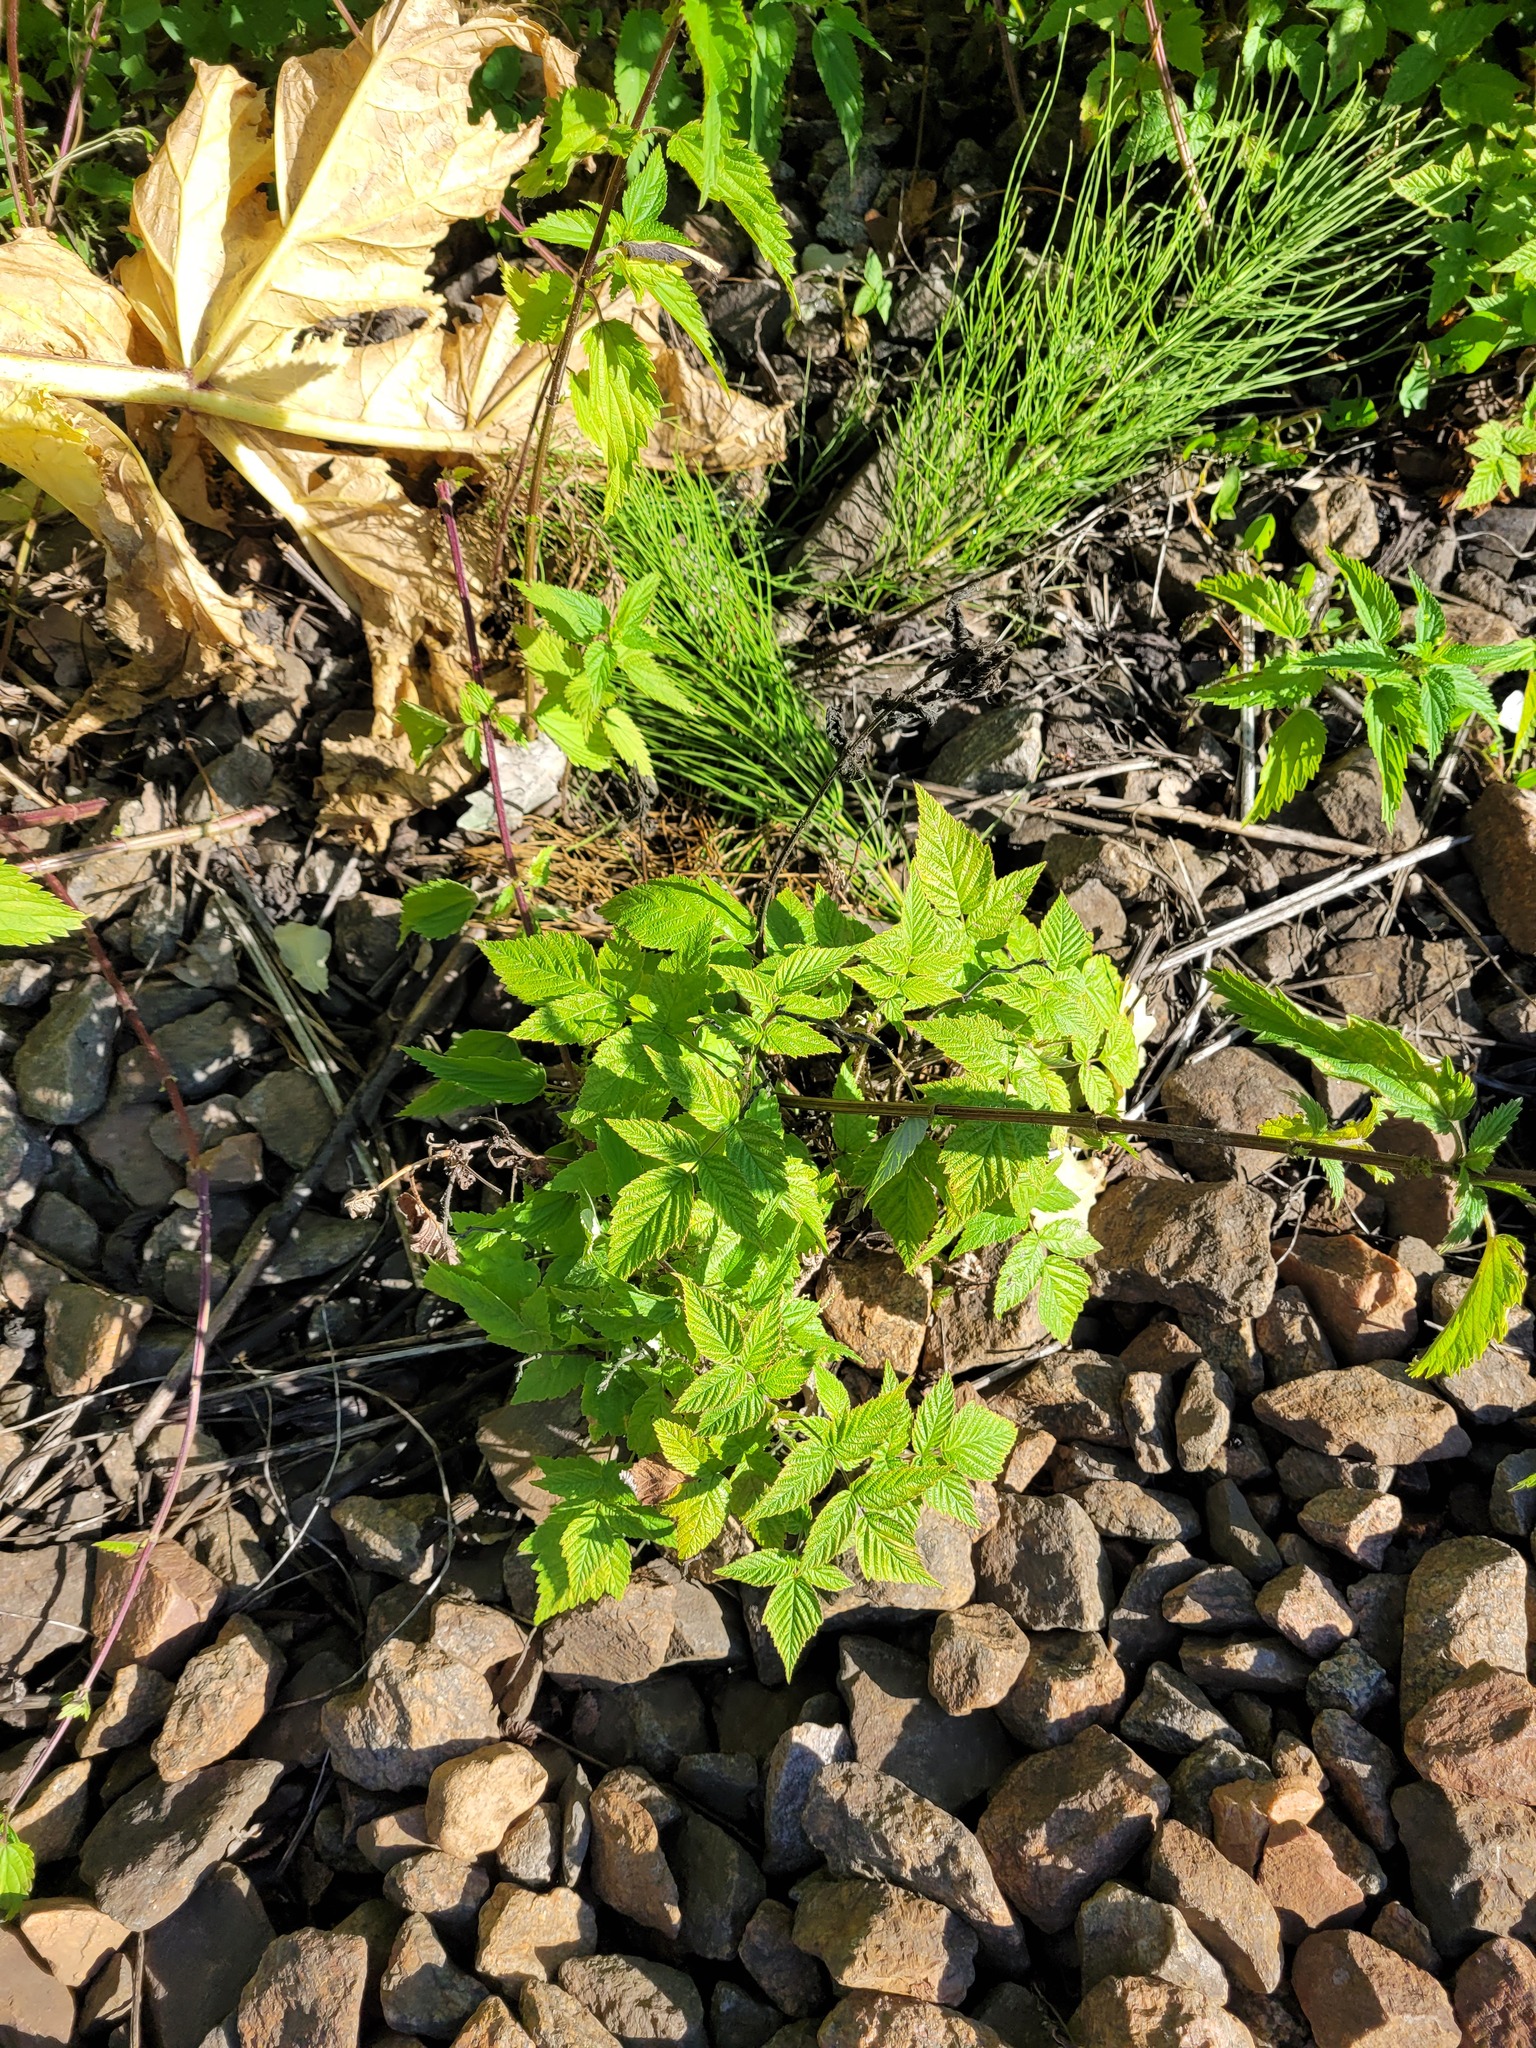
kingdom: Plantae
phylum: Tracheophyta
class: Magnoliopsida
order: Rosales
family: Rosaceae
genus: Rubus
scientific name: Rubus idaeus
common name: Raspberry
